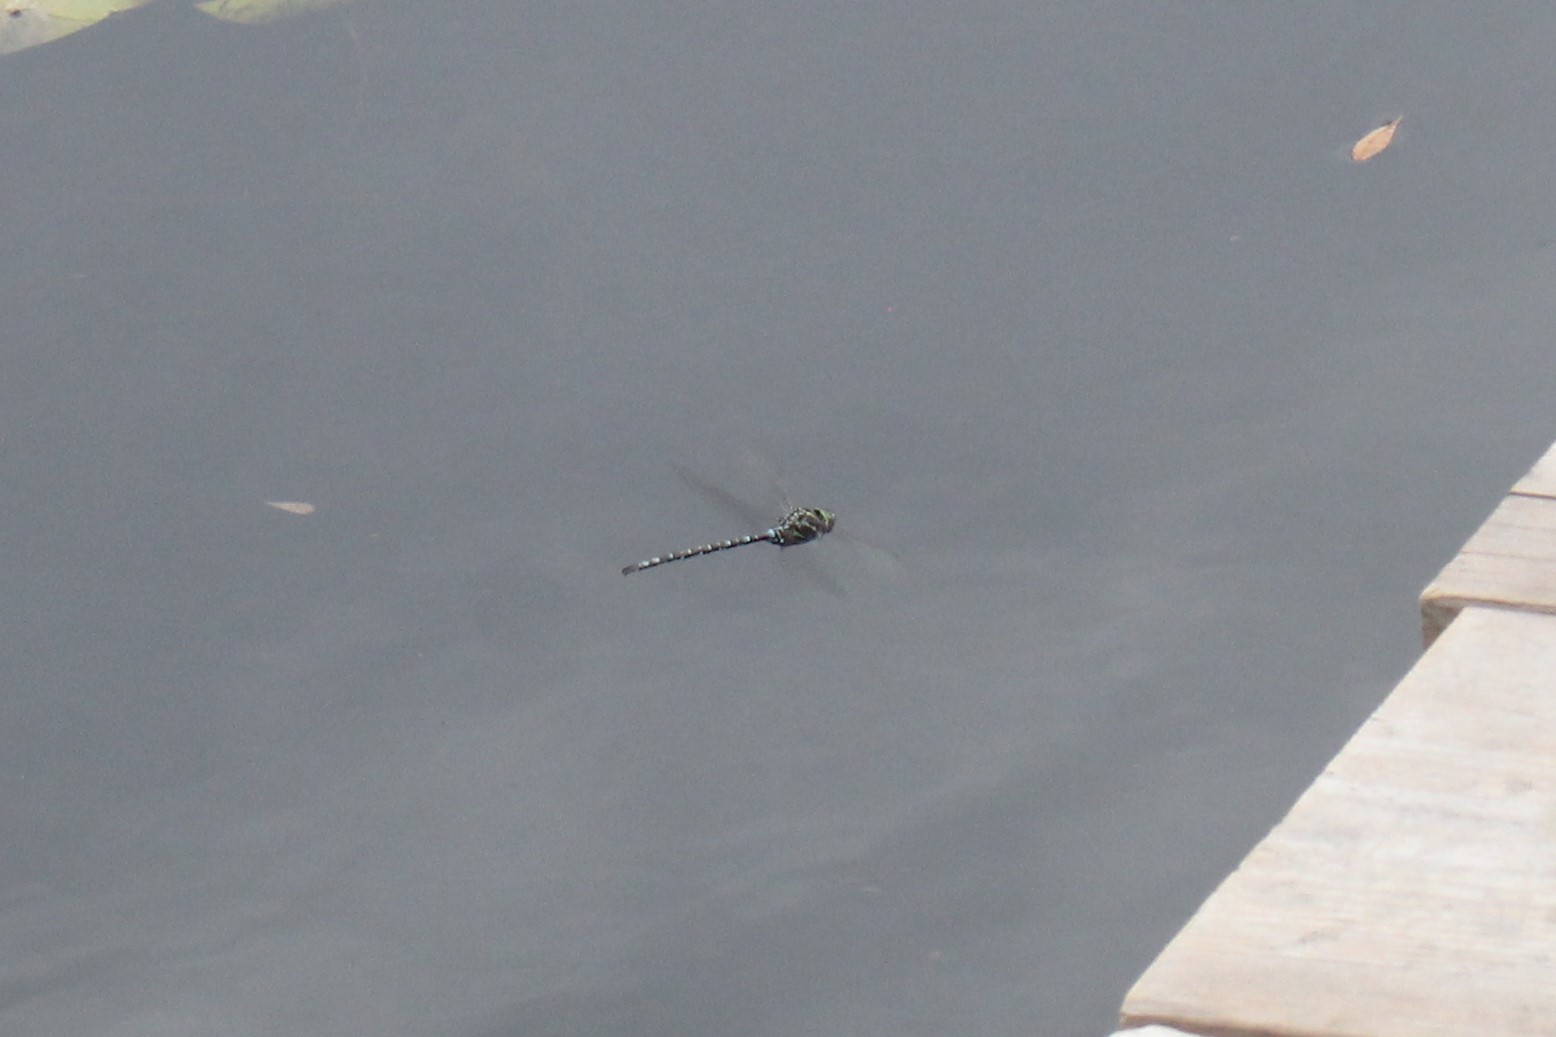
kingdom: Animalia
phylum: Arthropoda
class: Insecta
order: Odonata
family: Aeshnidae
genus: Aeshna
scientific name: Aeshna umbrosa
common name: Shadow darner
